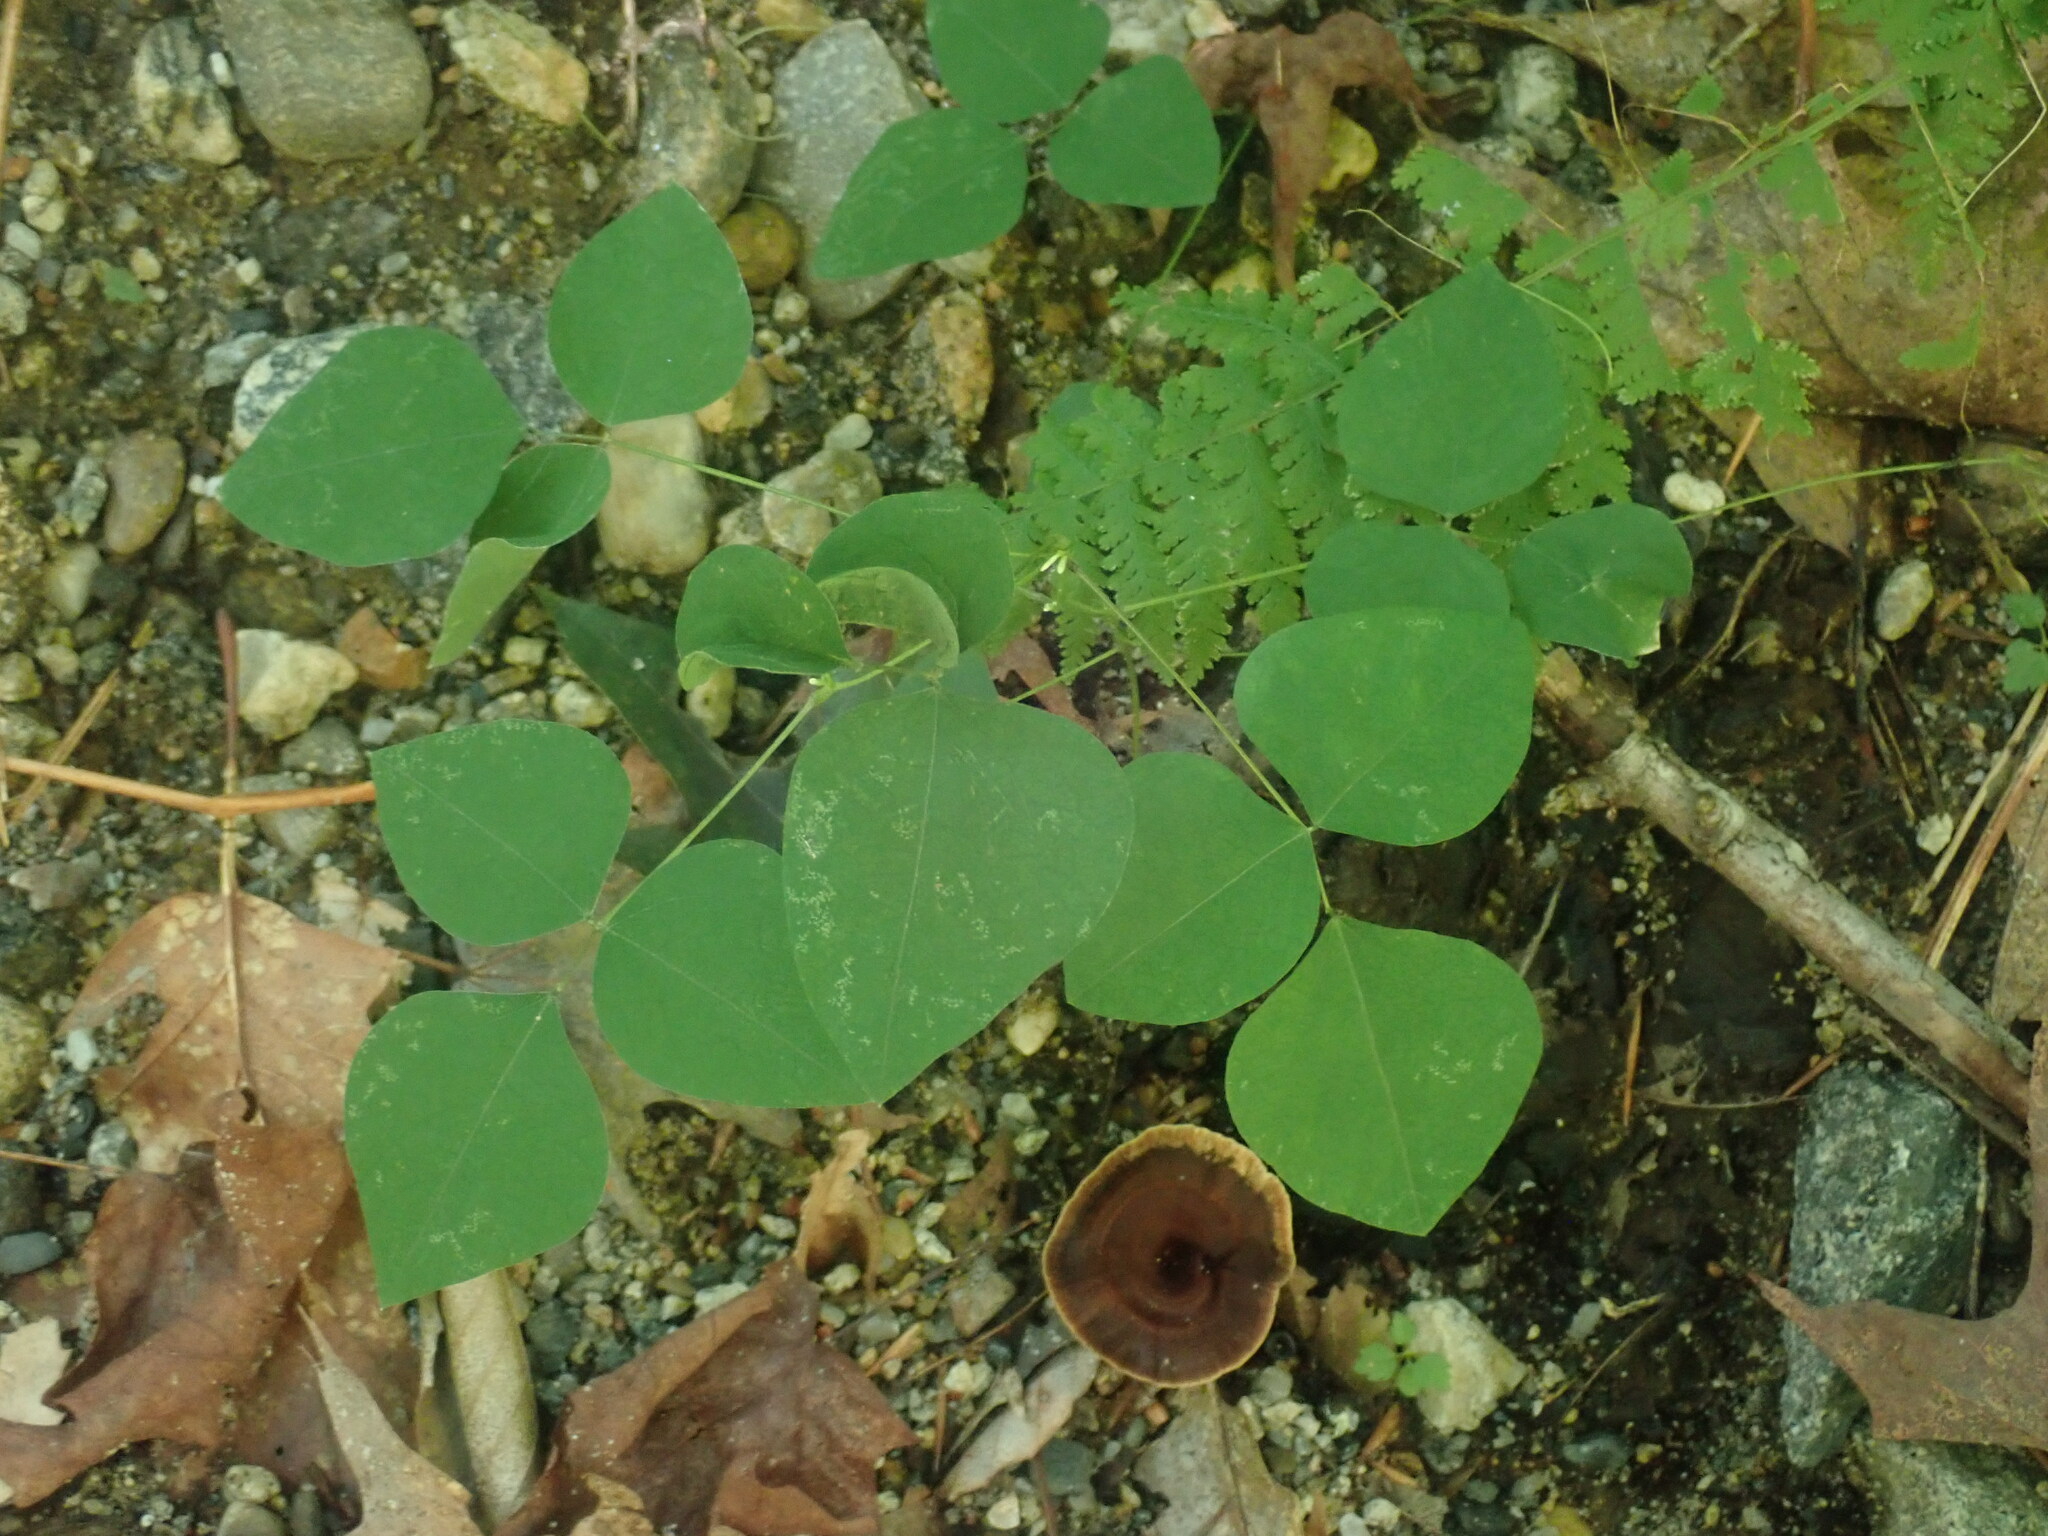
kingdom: Plantae
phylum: Tracheophyta
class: Magnoliopsida
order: Fabales
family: Fabaceae
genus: Amphicarpaea
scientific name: Amphicarpaea bracteata
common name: American hog peanut
